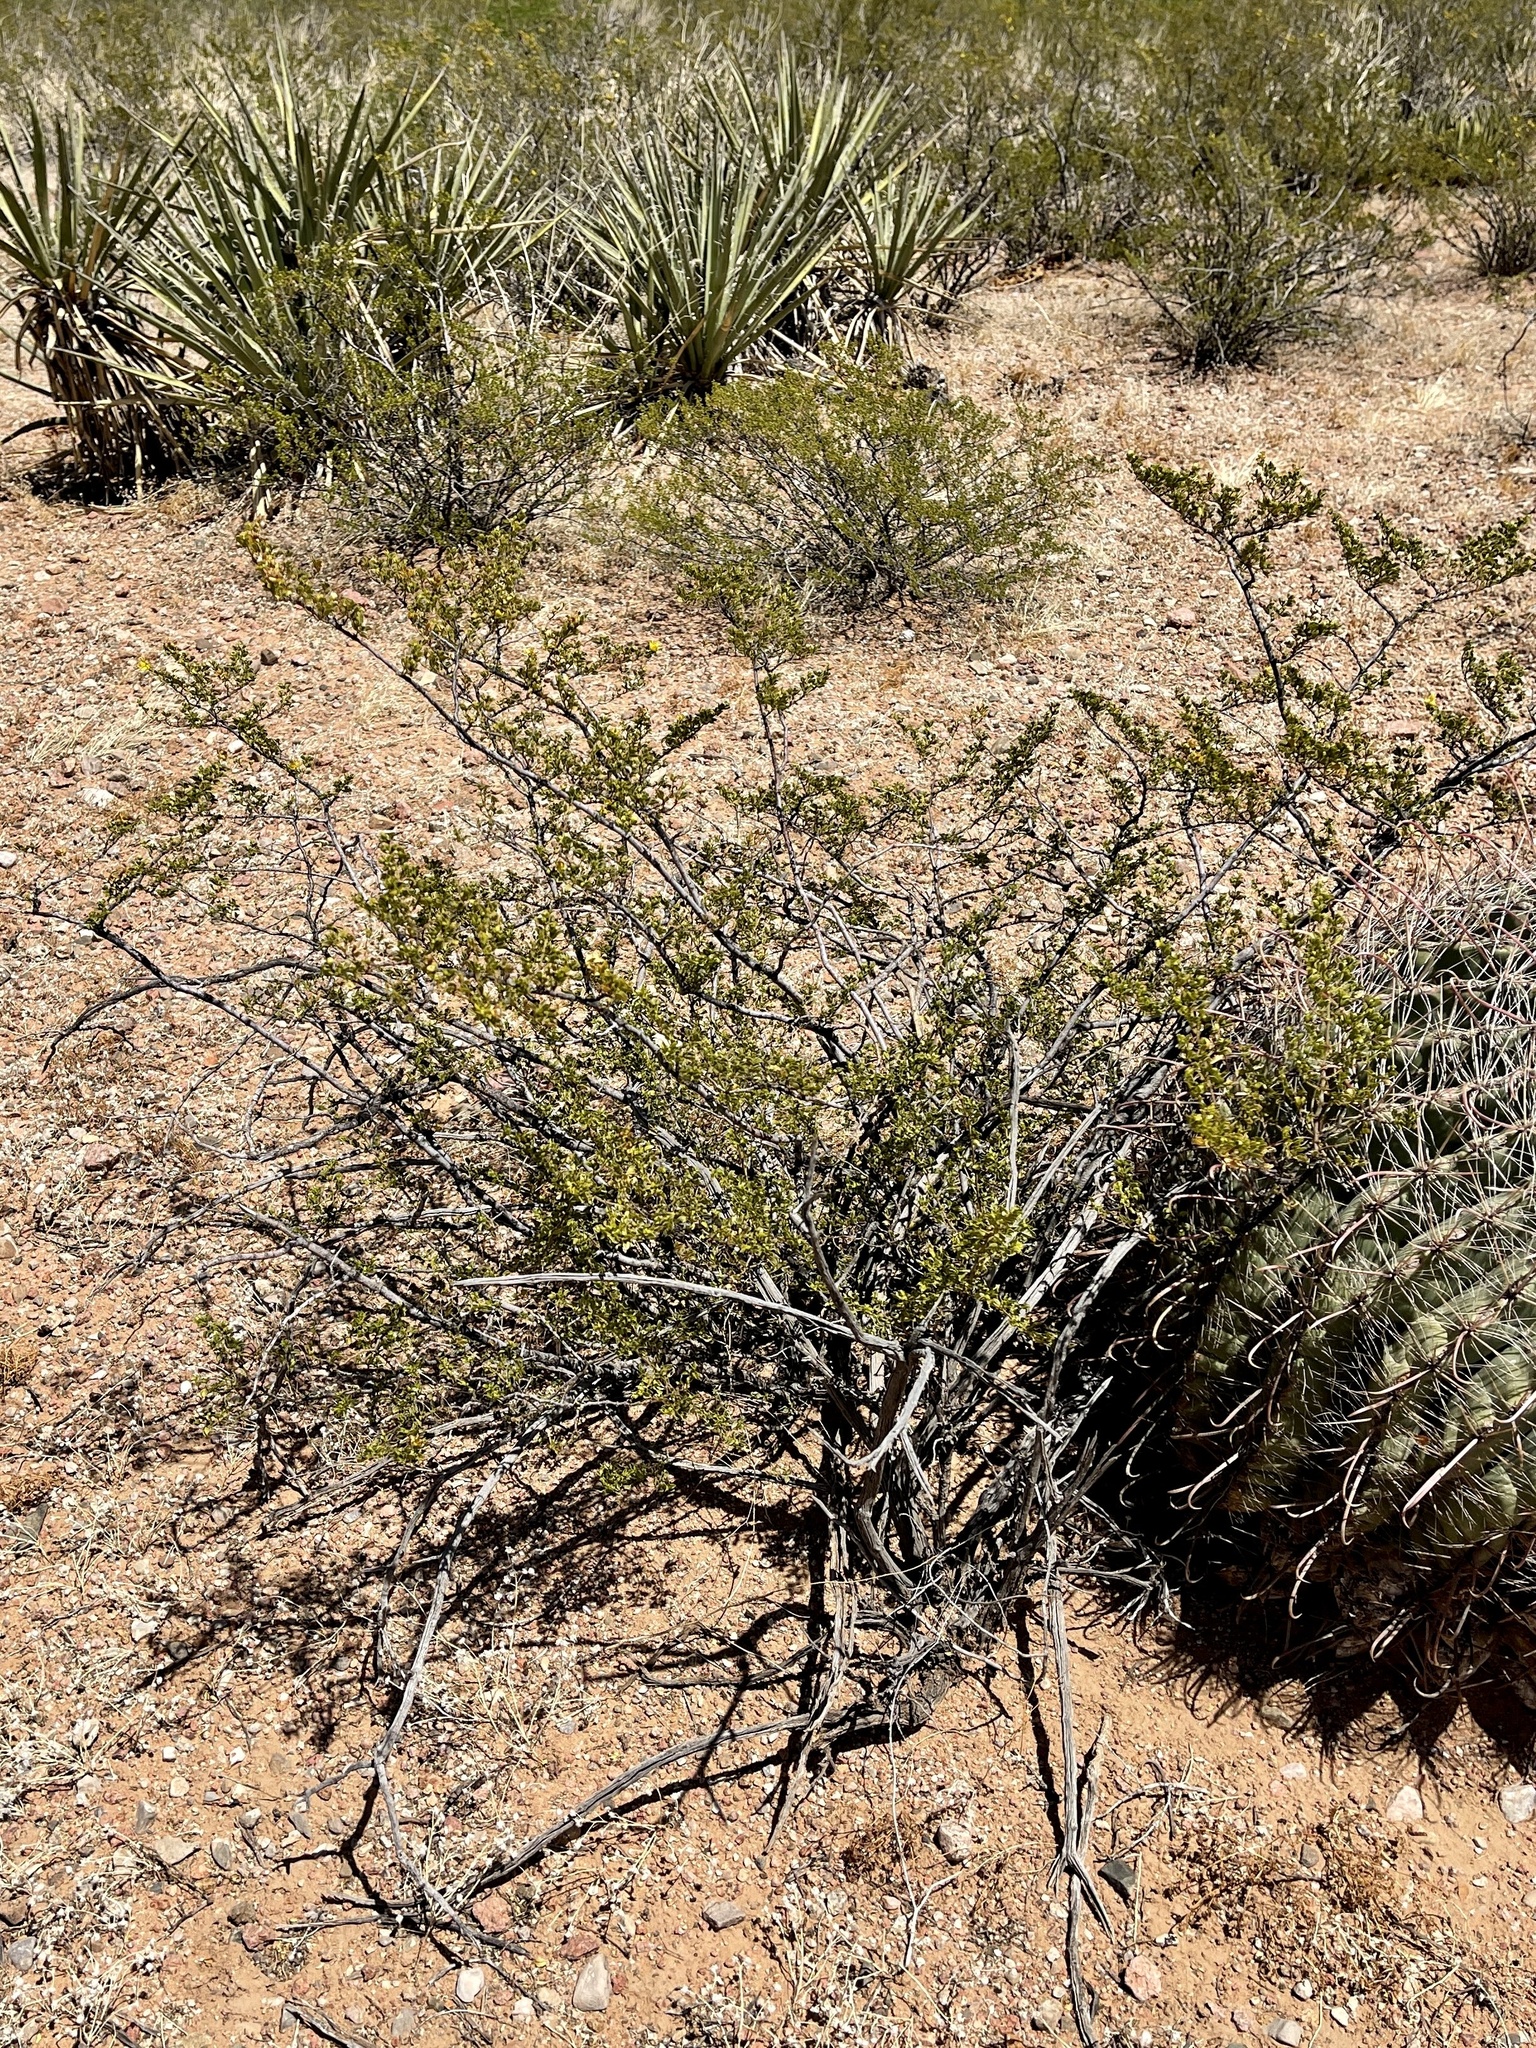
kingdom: Plantae
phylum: Tracheophyta
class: Magnoliopsida
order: Zygophyllales
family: Zygophyllaceae
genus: Larrea
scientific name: Larrea tridentata
